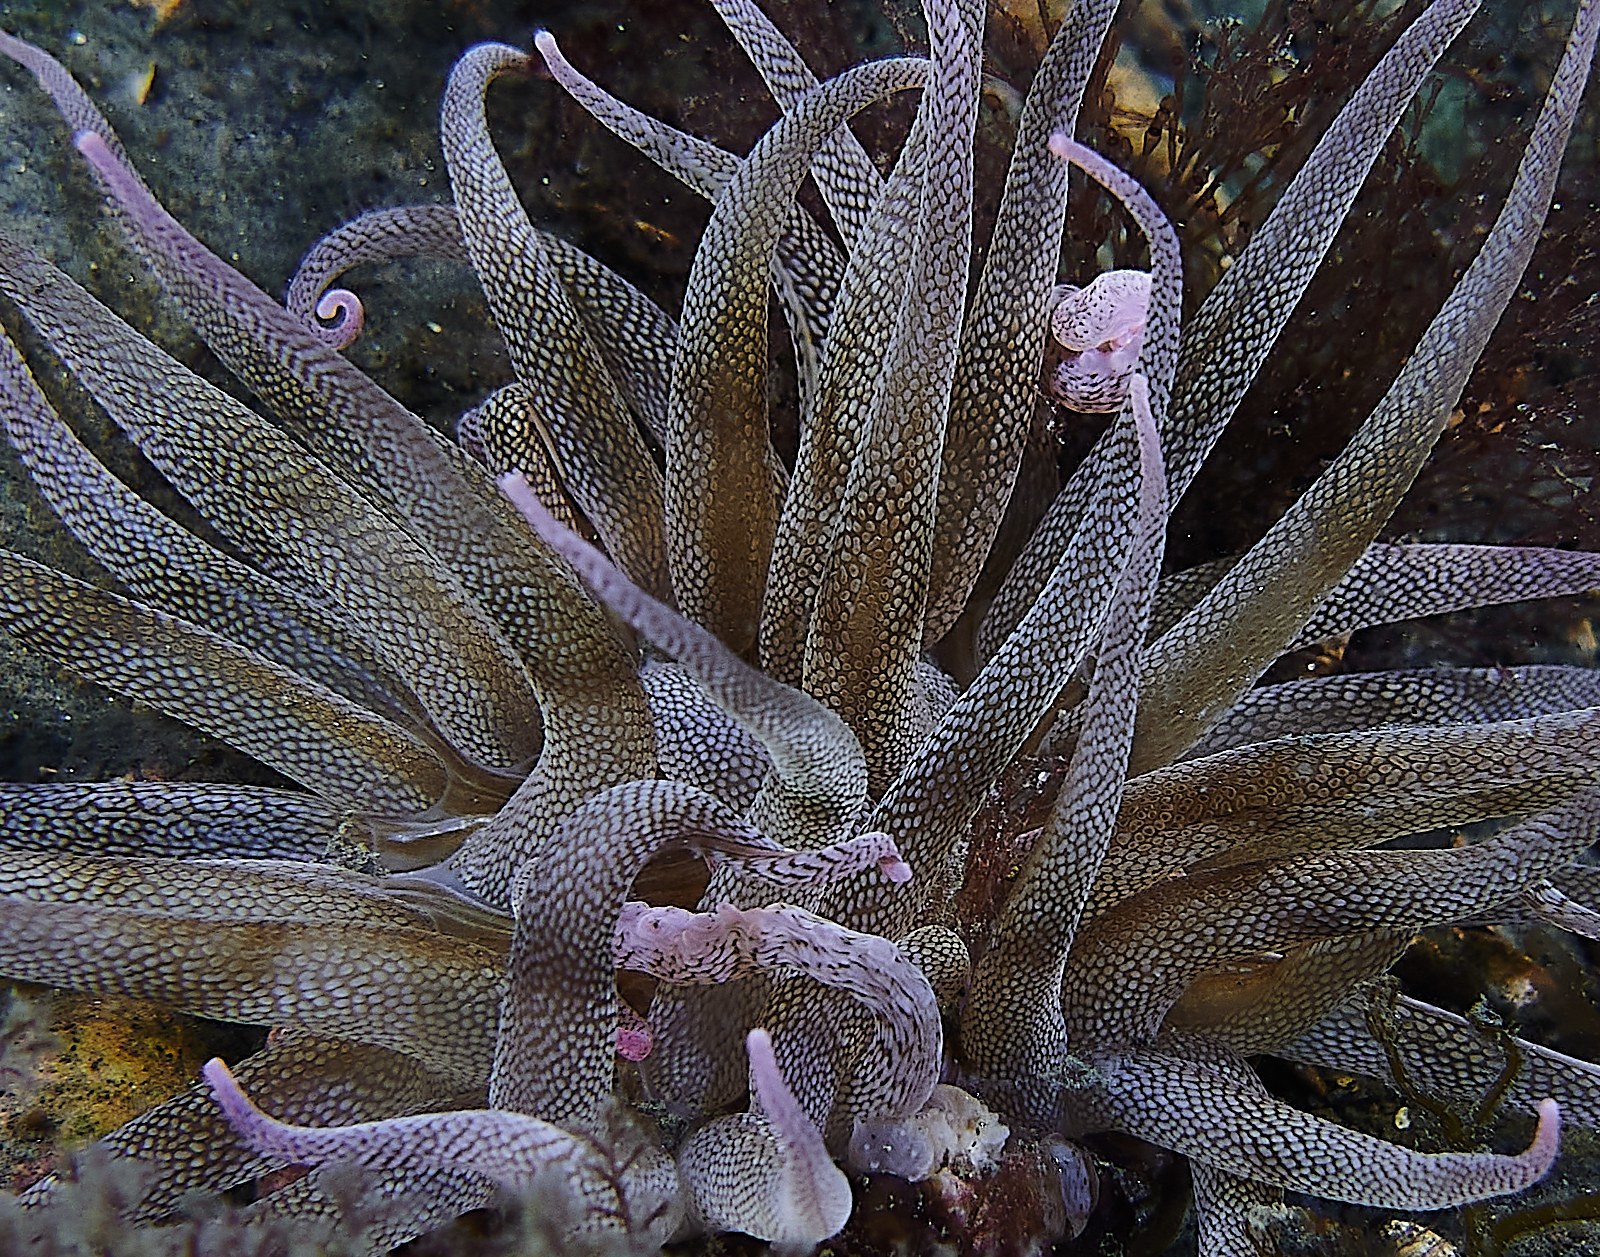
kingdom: Animalia
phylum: Cnidaria
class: Anthozoa
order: Actiniaria
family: Actiniidae
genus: Dofleinia
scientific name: Dofleinia armata
